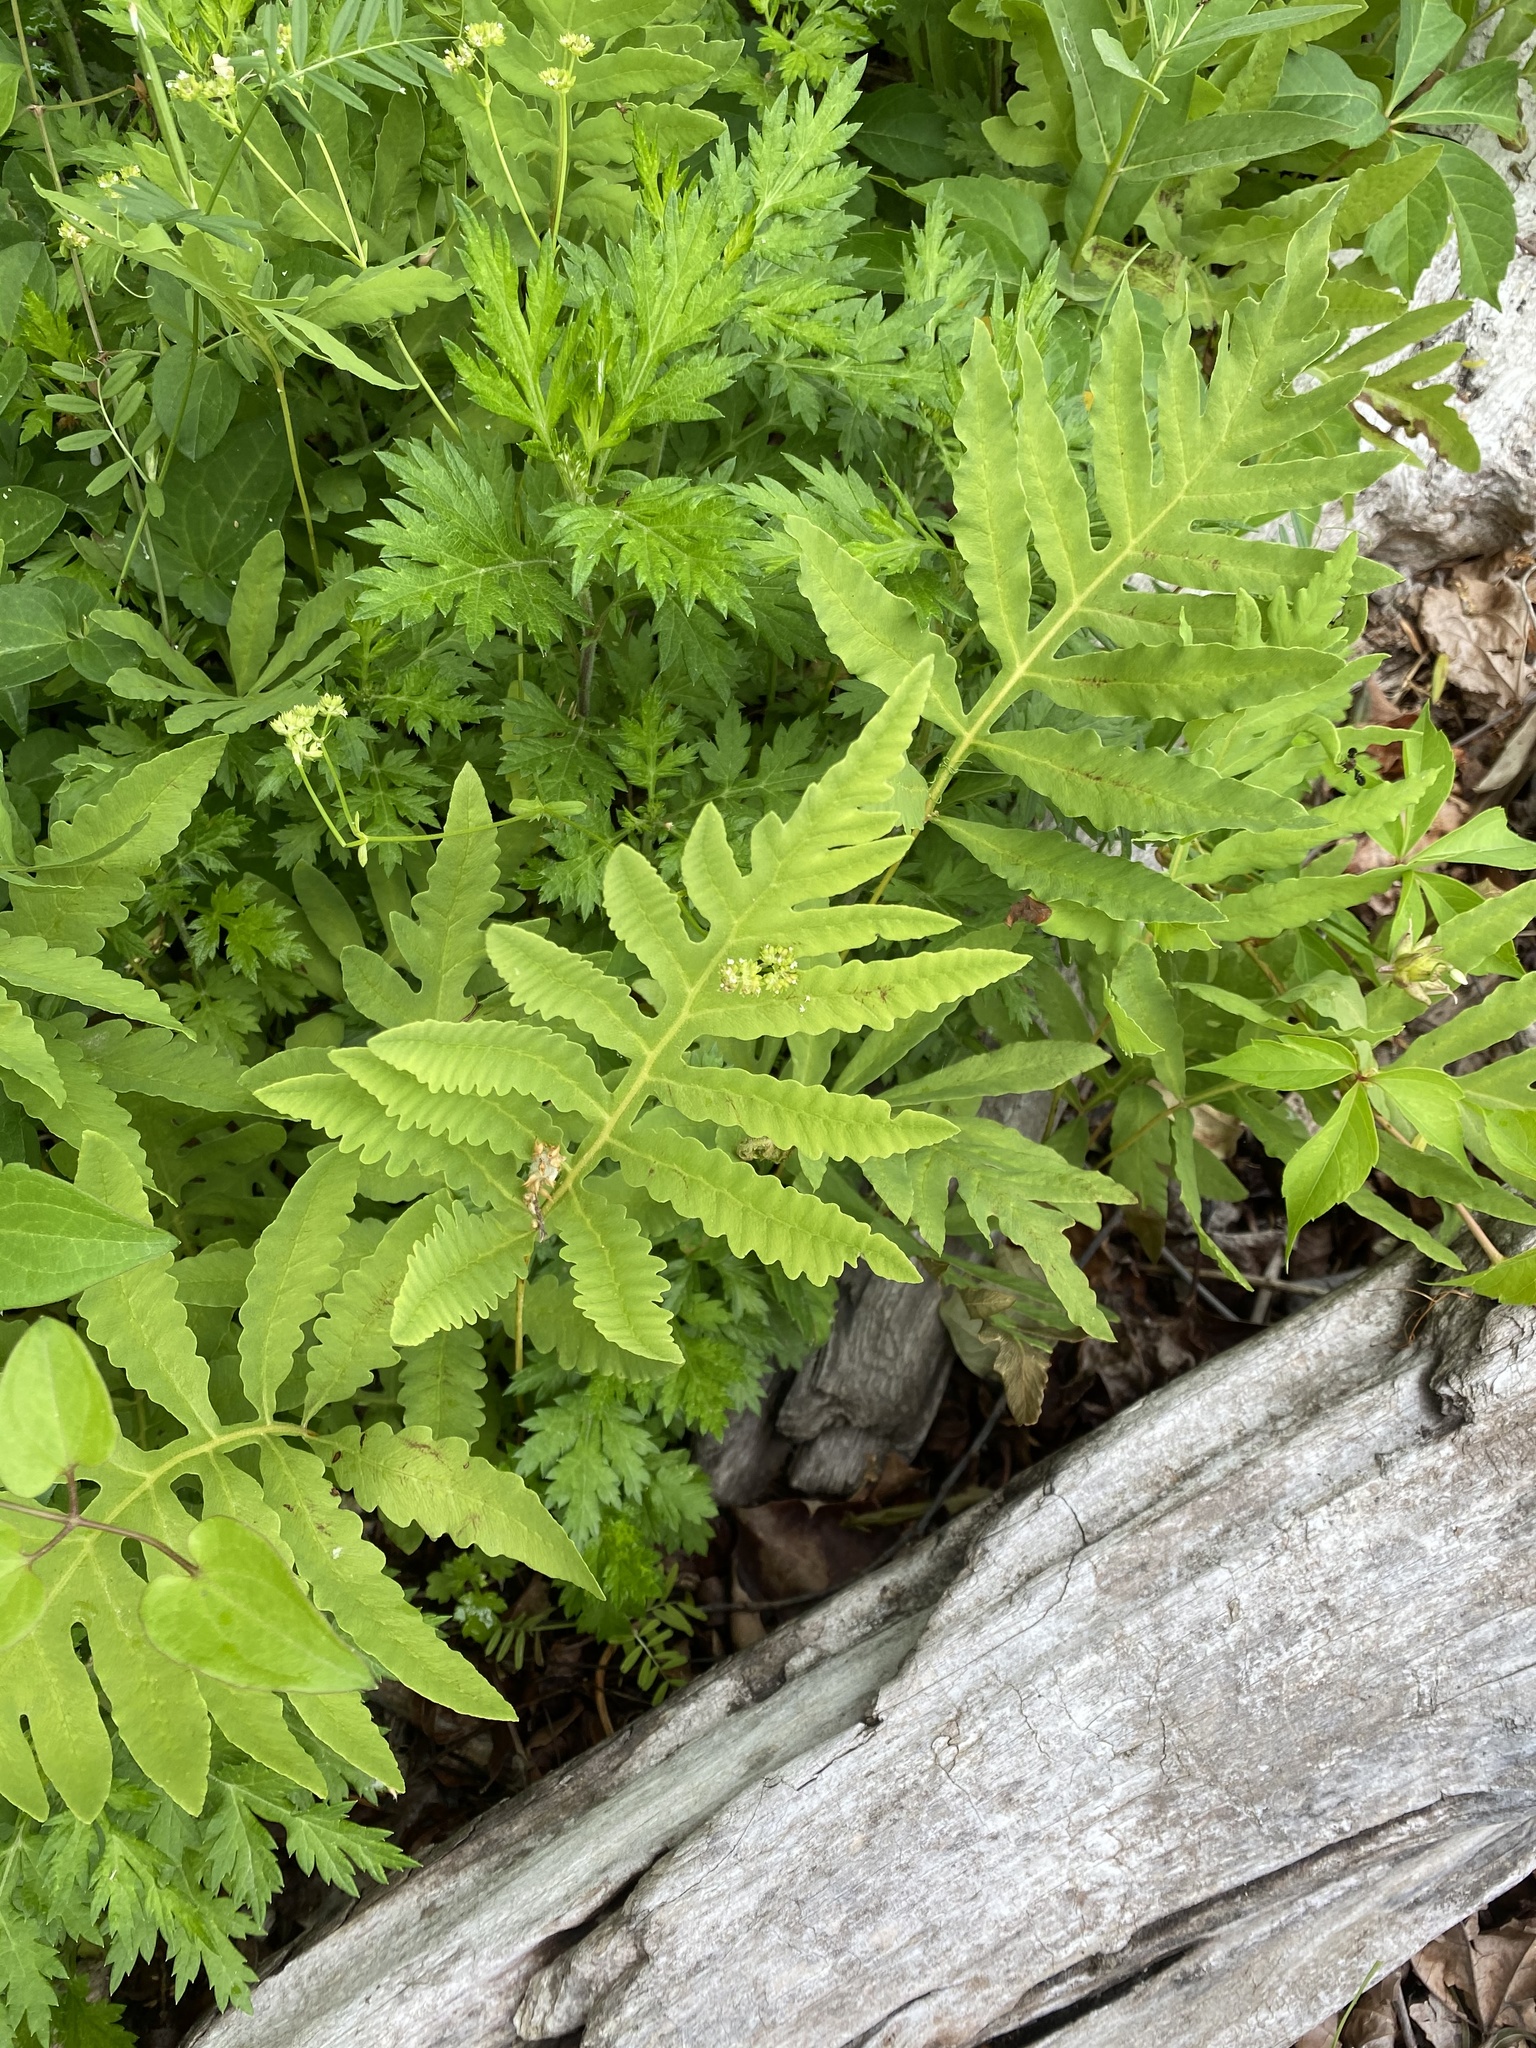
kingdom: Plantae
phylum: Tracheophyta
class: Polypodiopsida
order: Polypodiales
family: Onocleaceae
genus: Onoclea
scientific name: Onoclea sensibilis
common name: Sensitive fern
